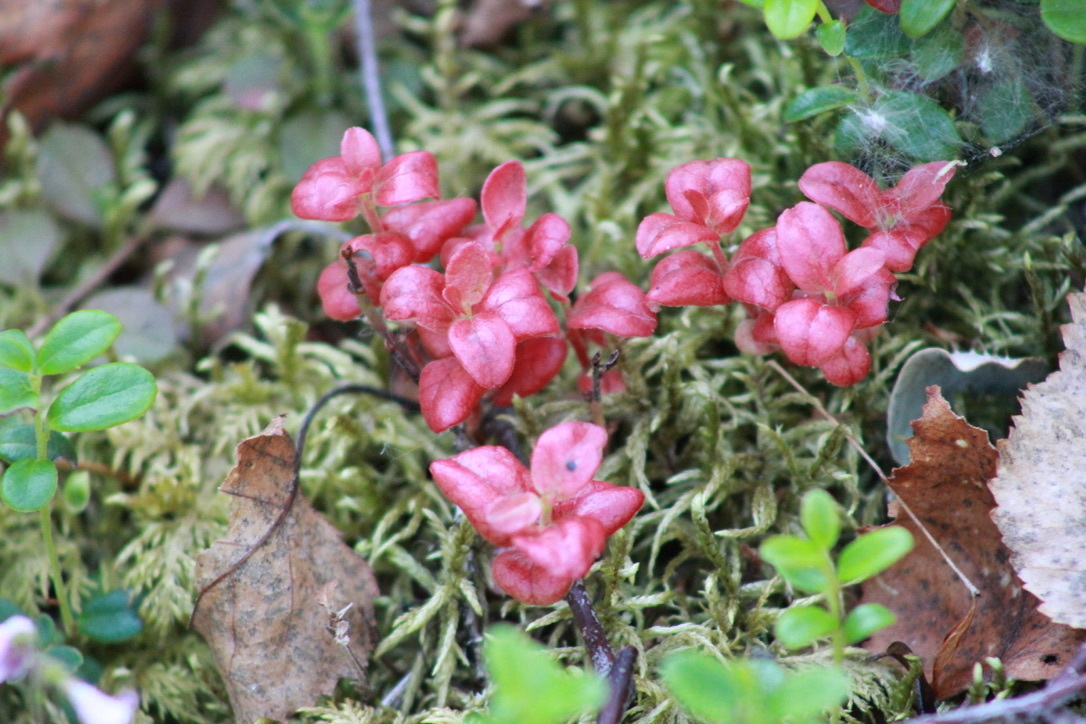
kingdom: Fungi
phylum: Basidiomycota
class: Exobasidiomycetes
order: Exobasidiales
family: Exobasidiaceae
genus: Exobasidium
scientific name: Exobasidium splendidum
